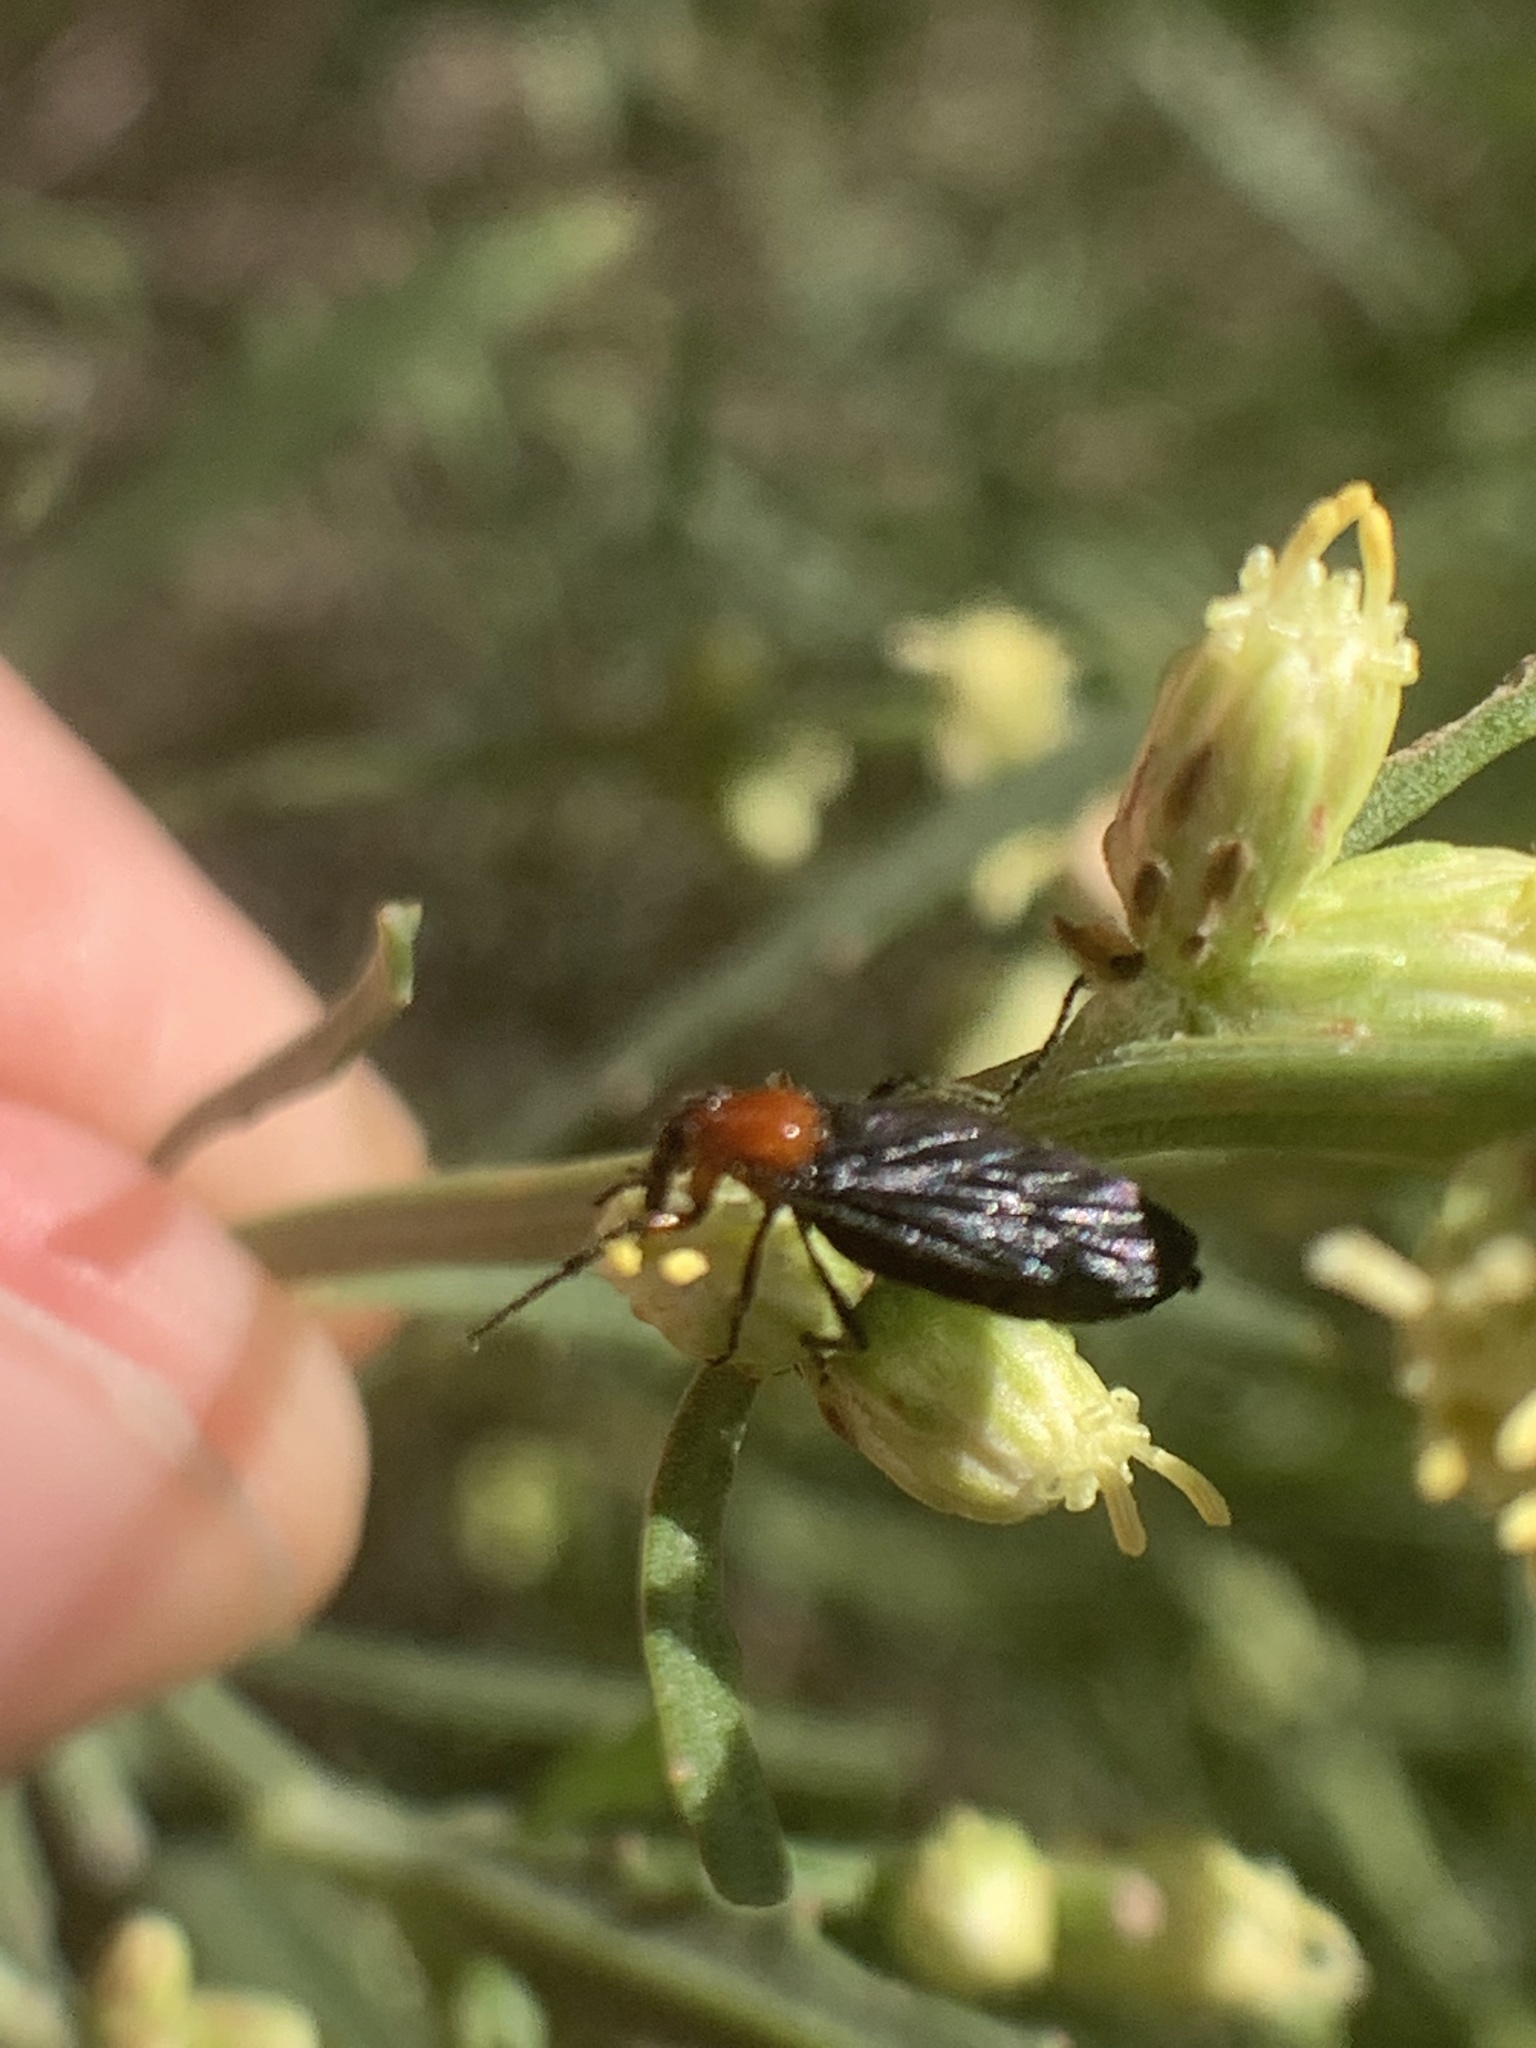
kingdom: Animalia
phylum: Arthropoda
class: Insecta
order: Diptera
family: Bibionidae
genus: Dilophus
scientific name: Dilophus pectoralis
